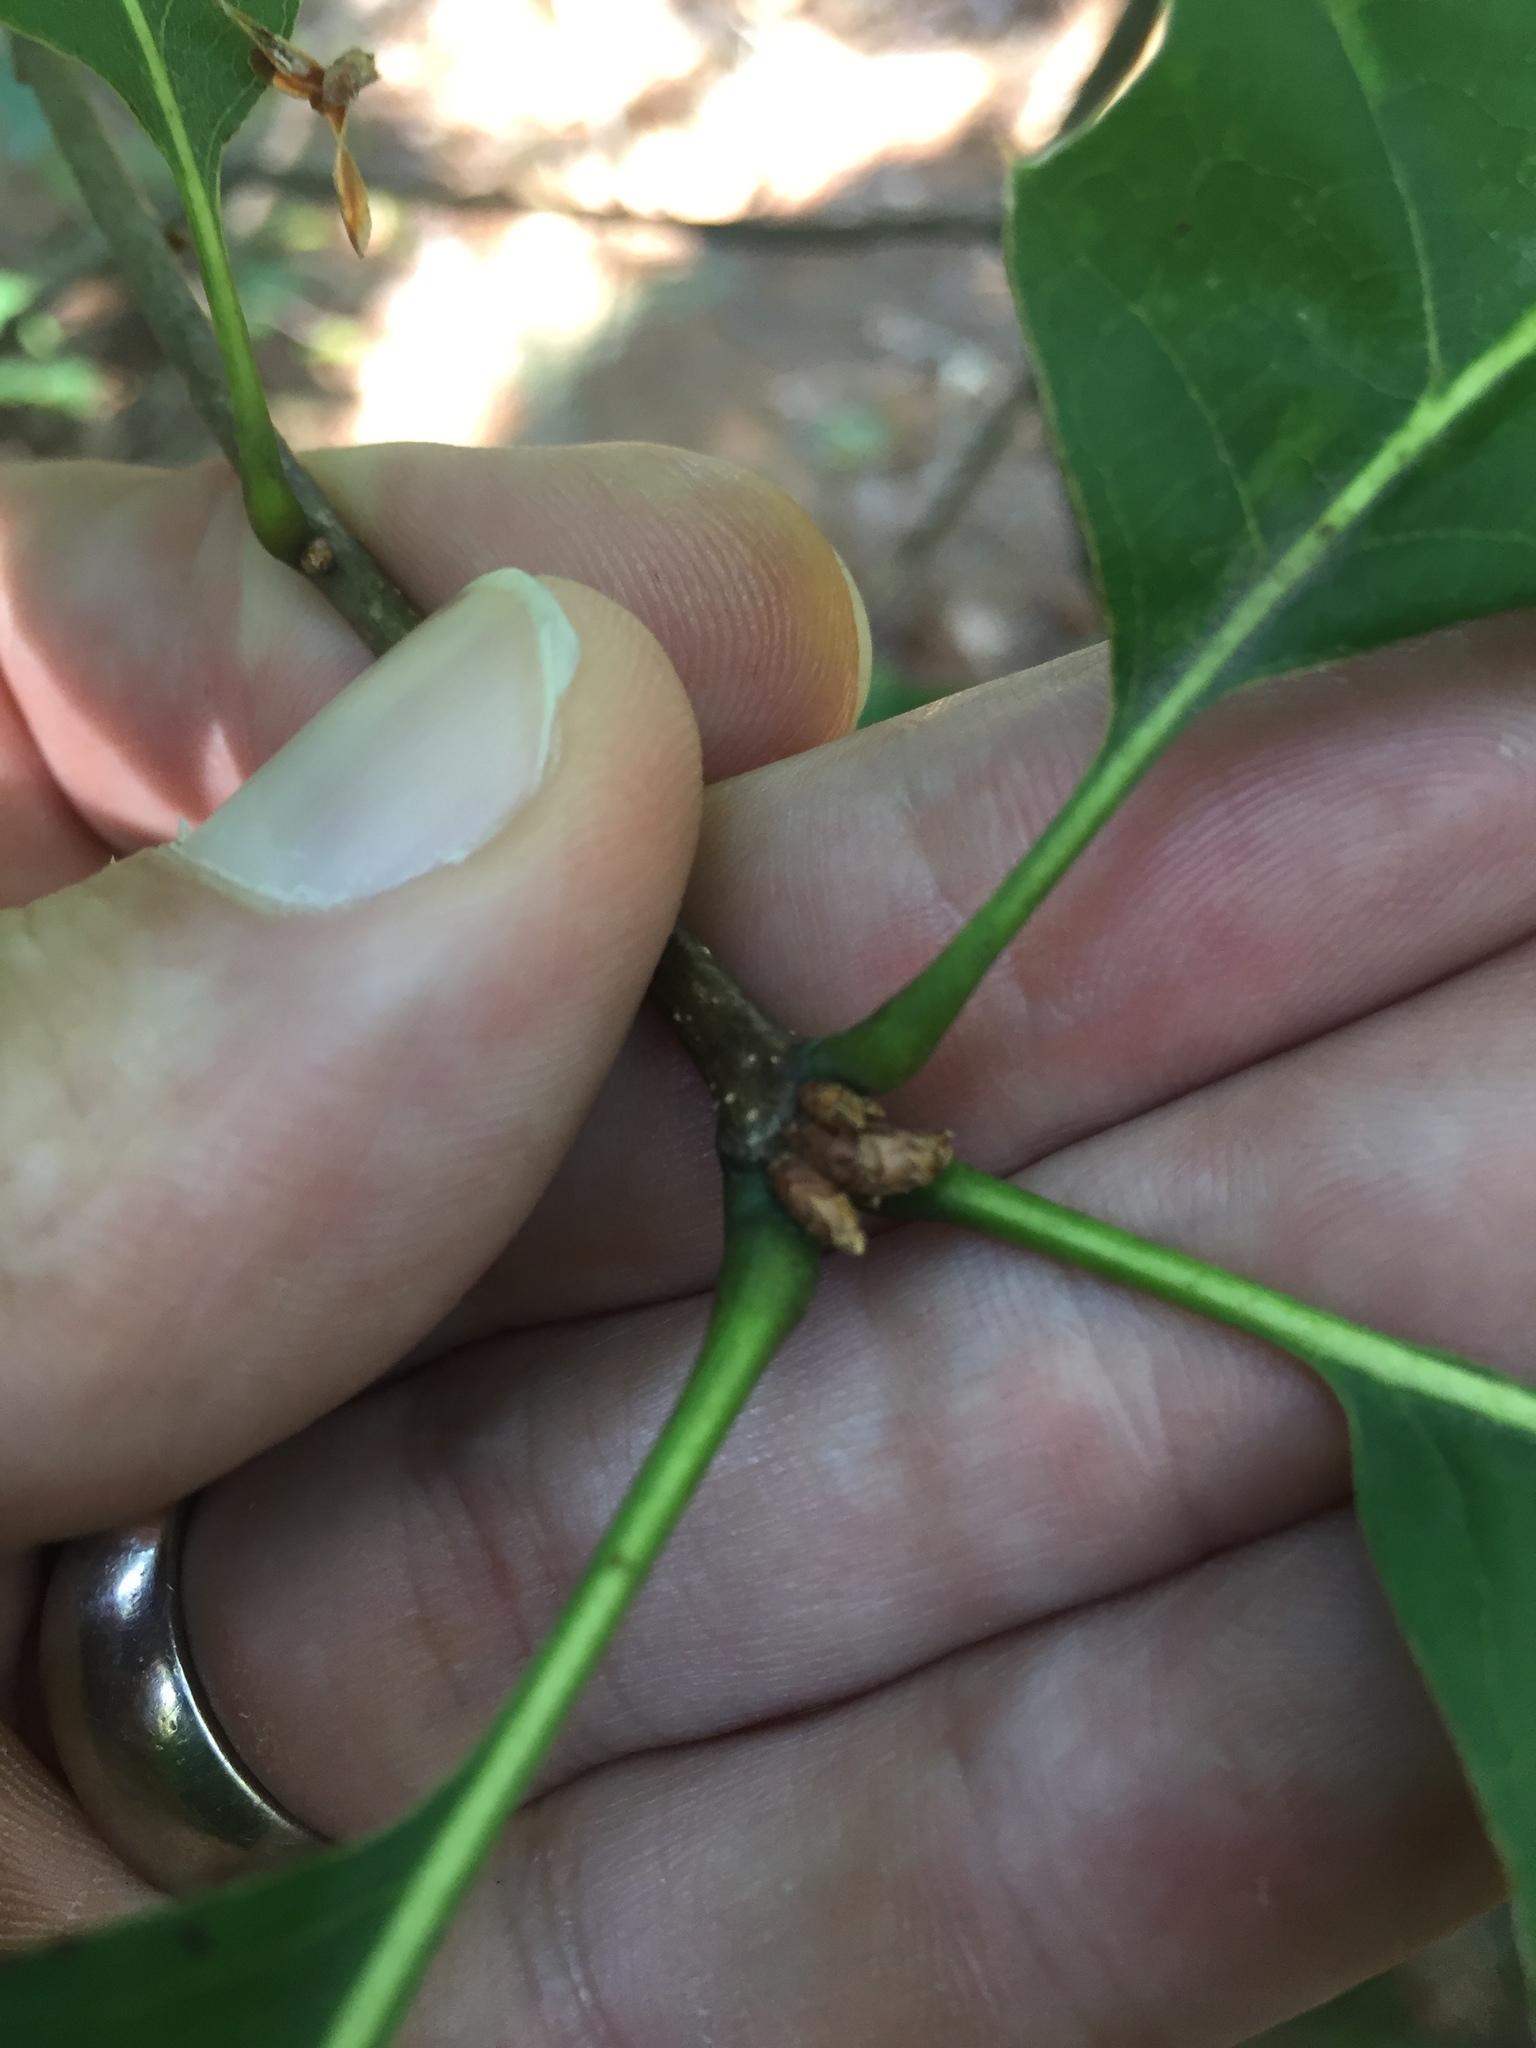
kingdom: Plantae
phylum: Tracheophyta
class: Magnoliopsida
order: Fagales
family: Fagaceae
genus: Quercus
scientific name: Quercus rubra
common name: Red oak
